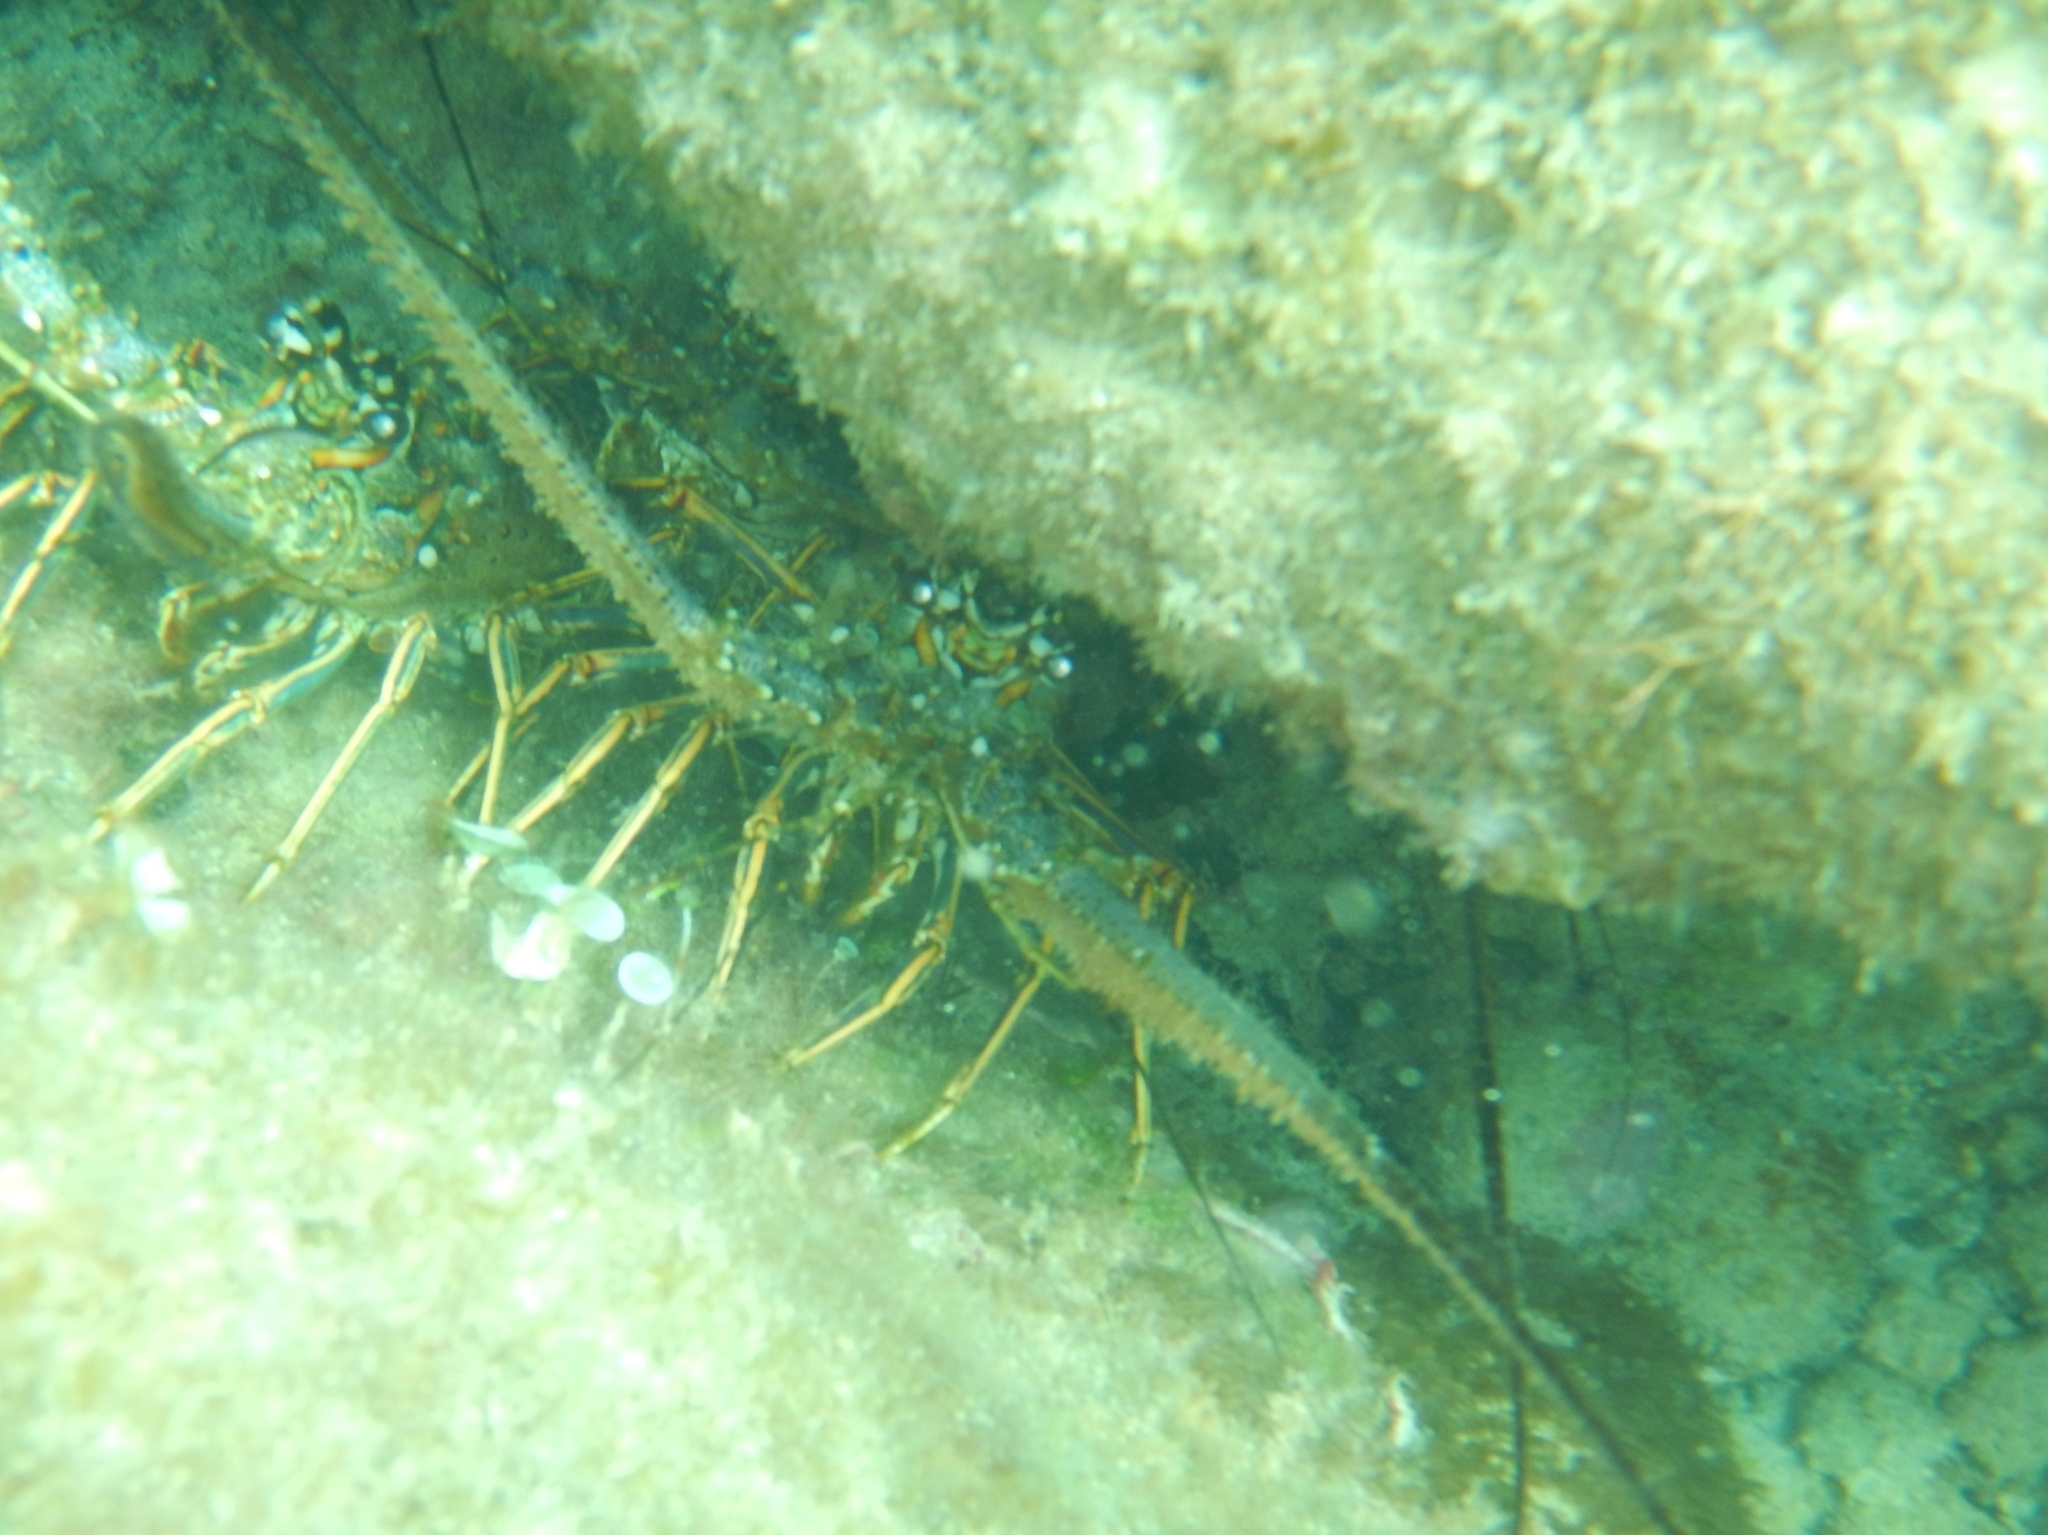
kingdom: Animalia
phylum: Arthropoda
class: Malacostraca
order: Decapoda
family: Palinuridae
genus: Panulirus
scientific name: Panulirus argus
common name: Caribbean spiny lobster
